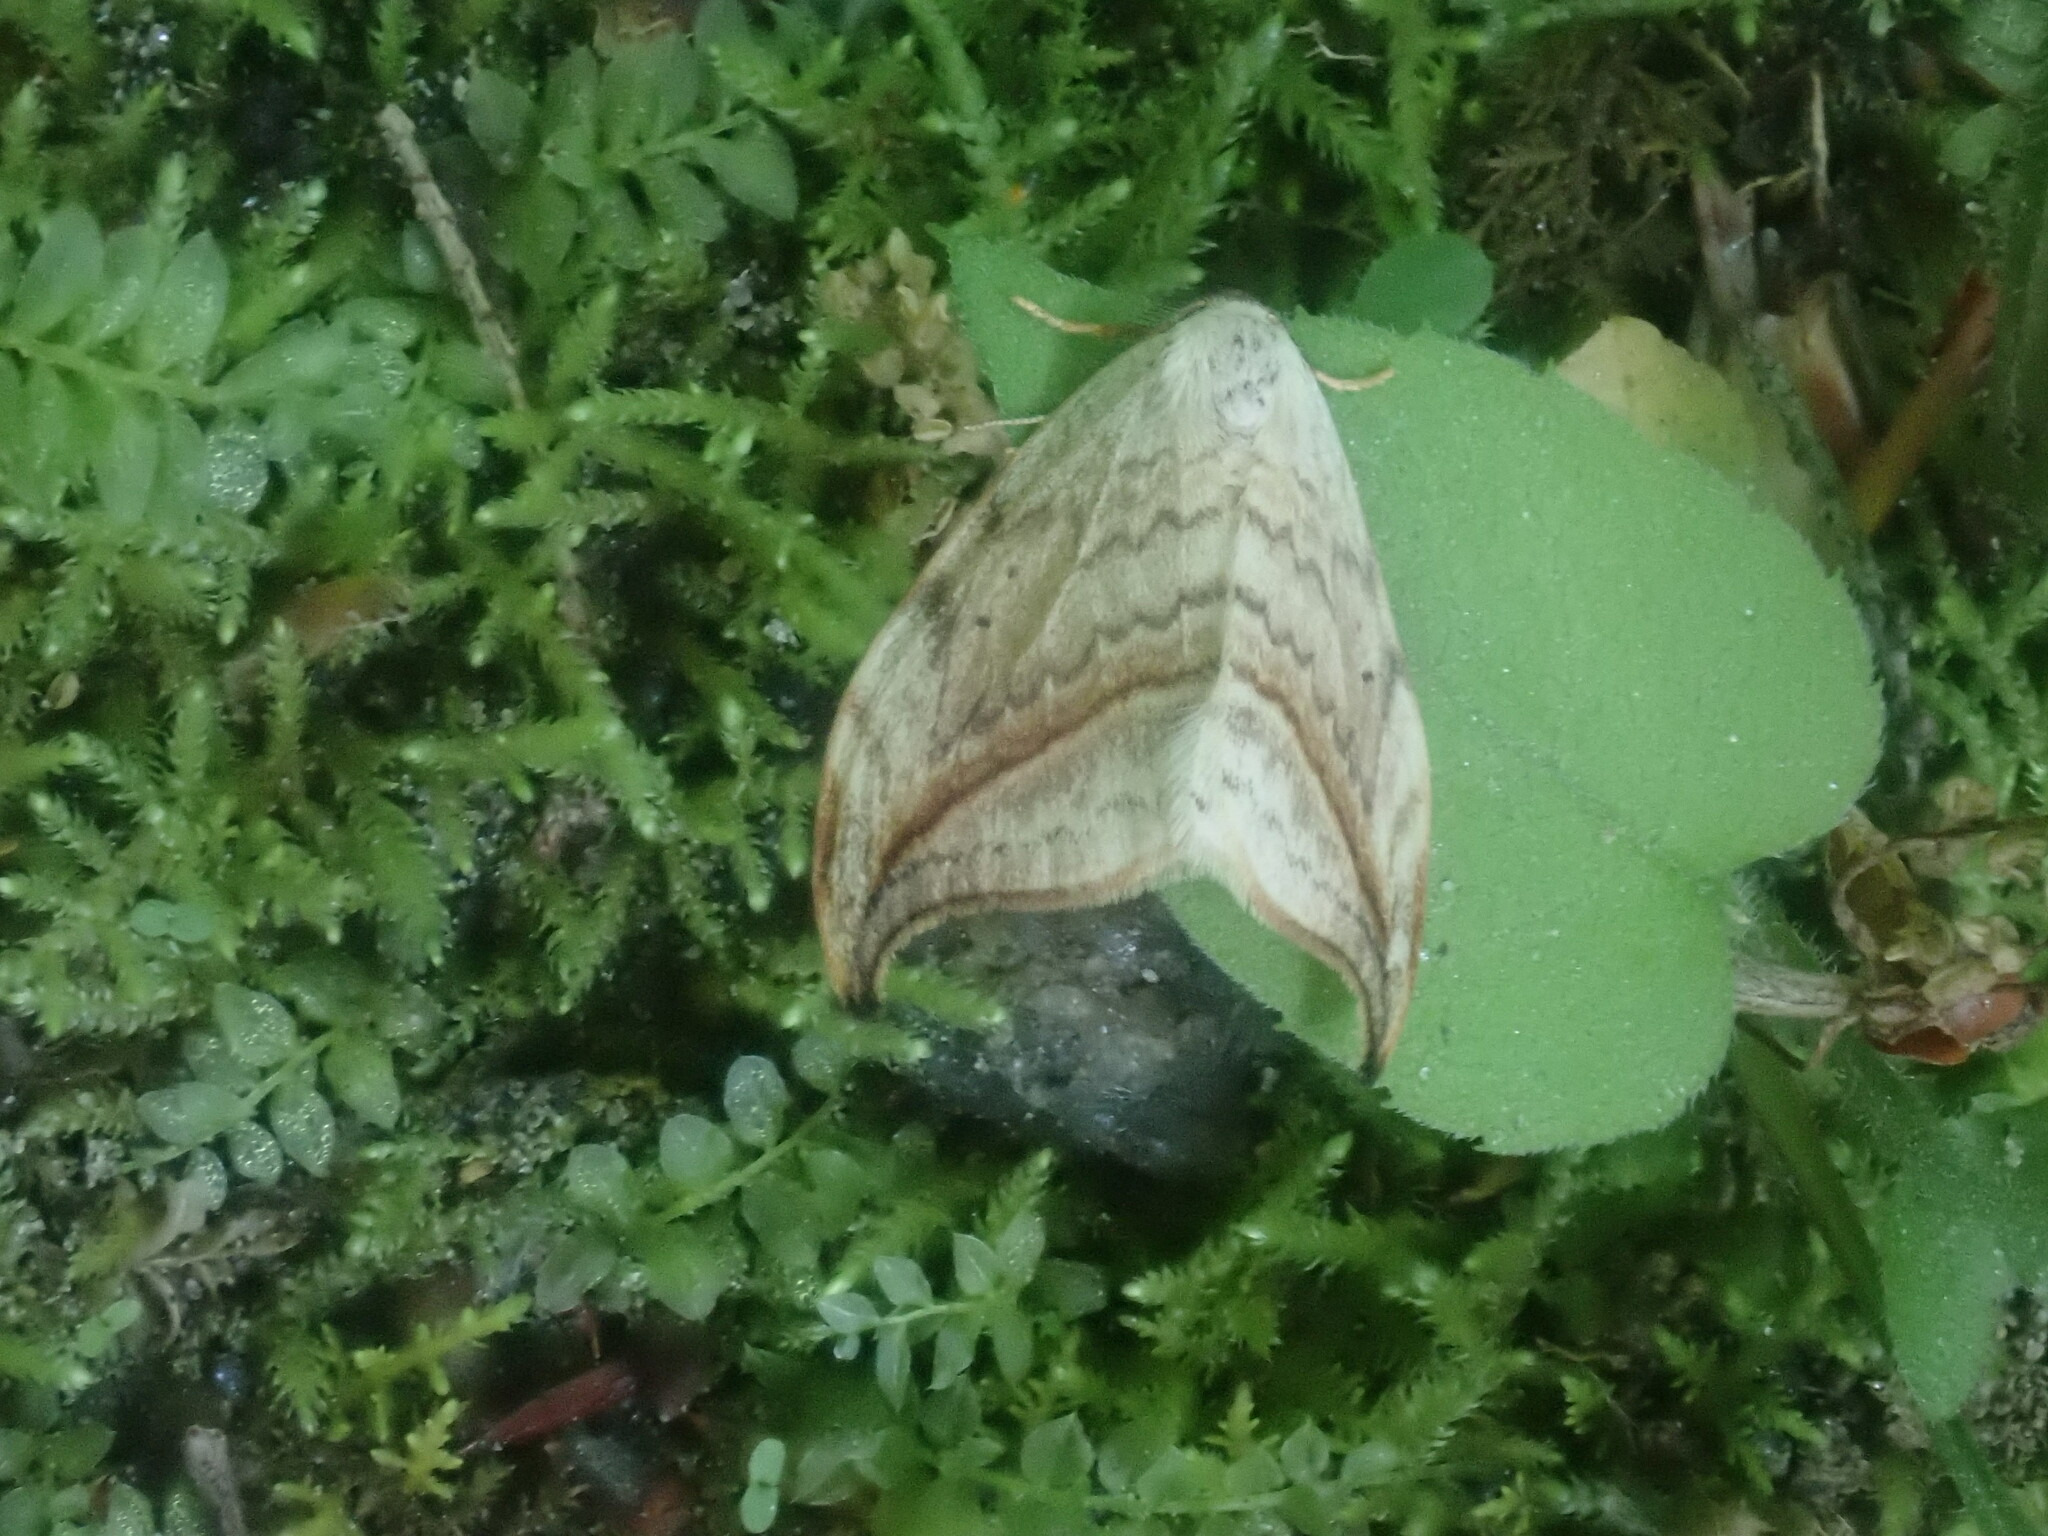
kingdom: Animalia
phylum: Arthropoda
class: Insecta
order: Lepidoptera
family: Drepanidae
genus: Drepana
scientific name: Drepana arcuata
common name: Arched hooktip moth
